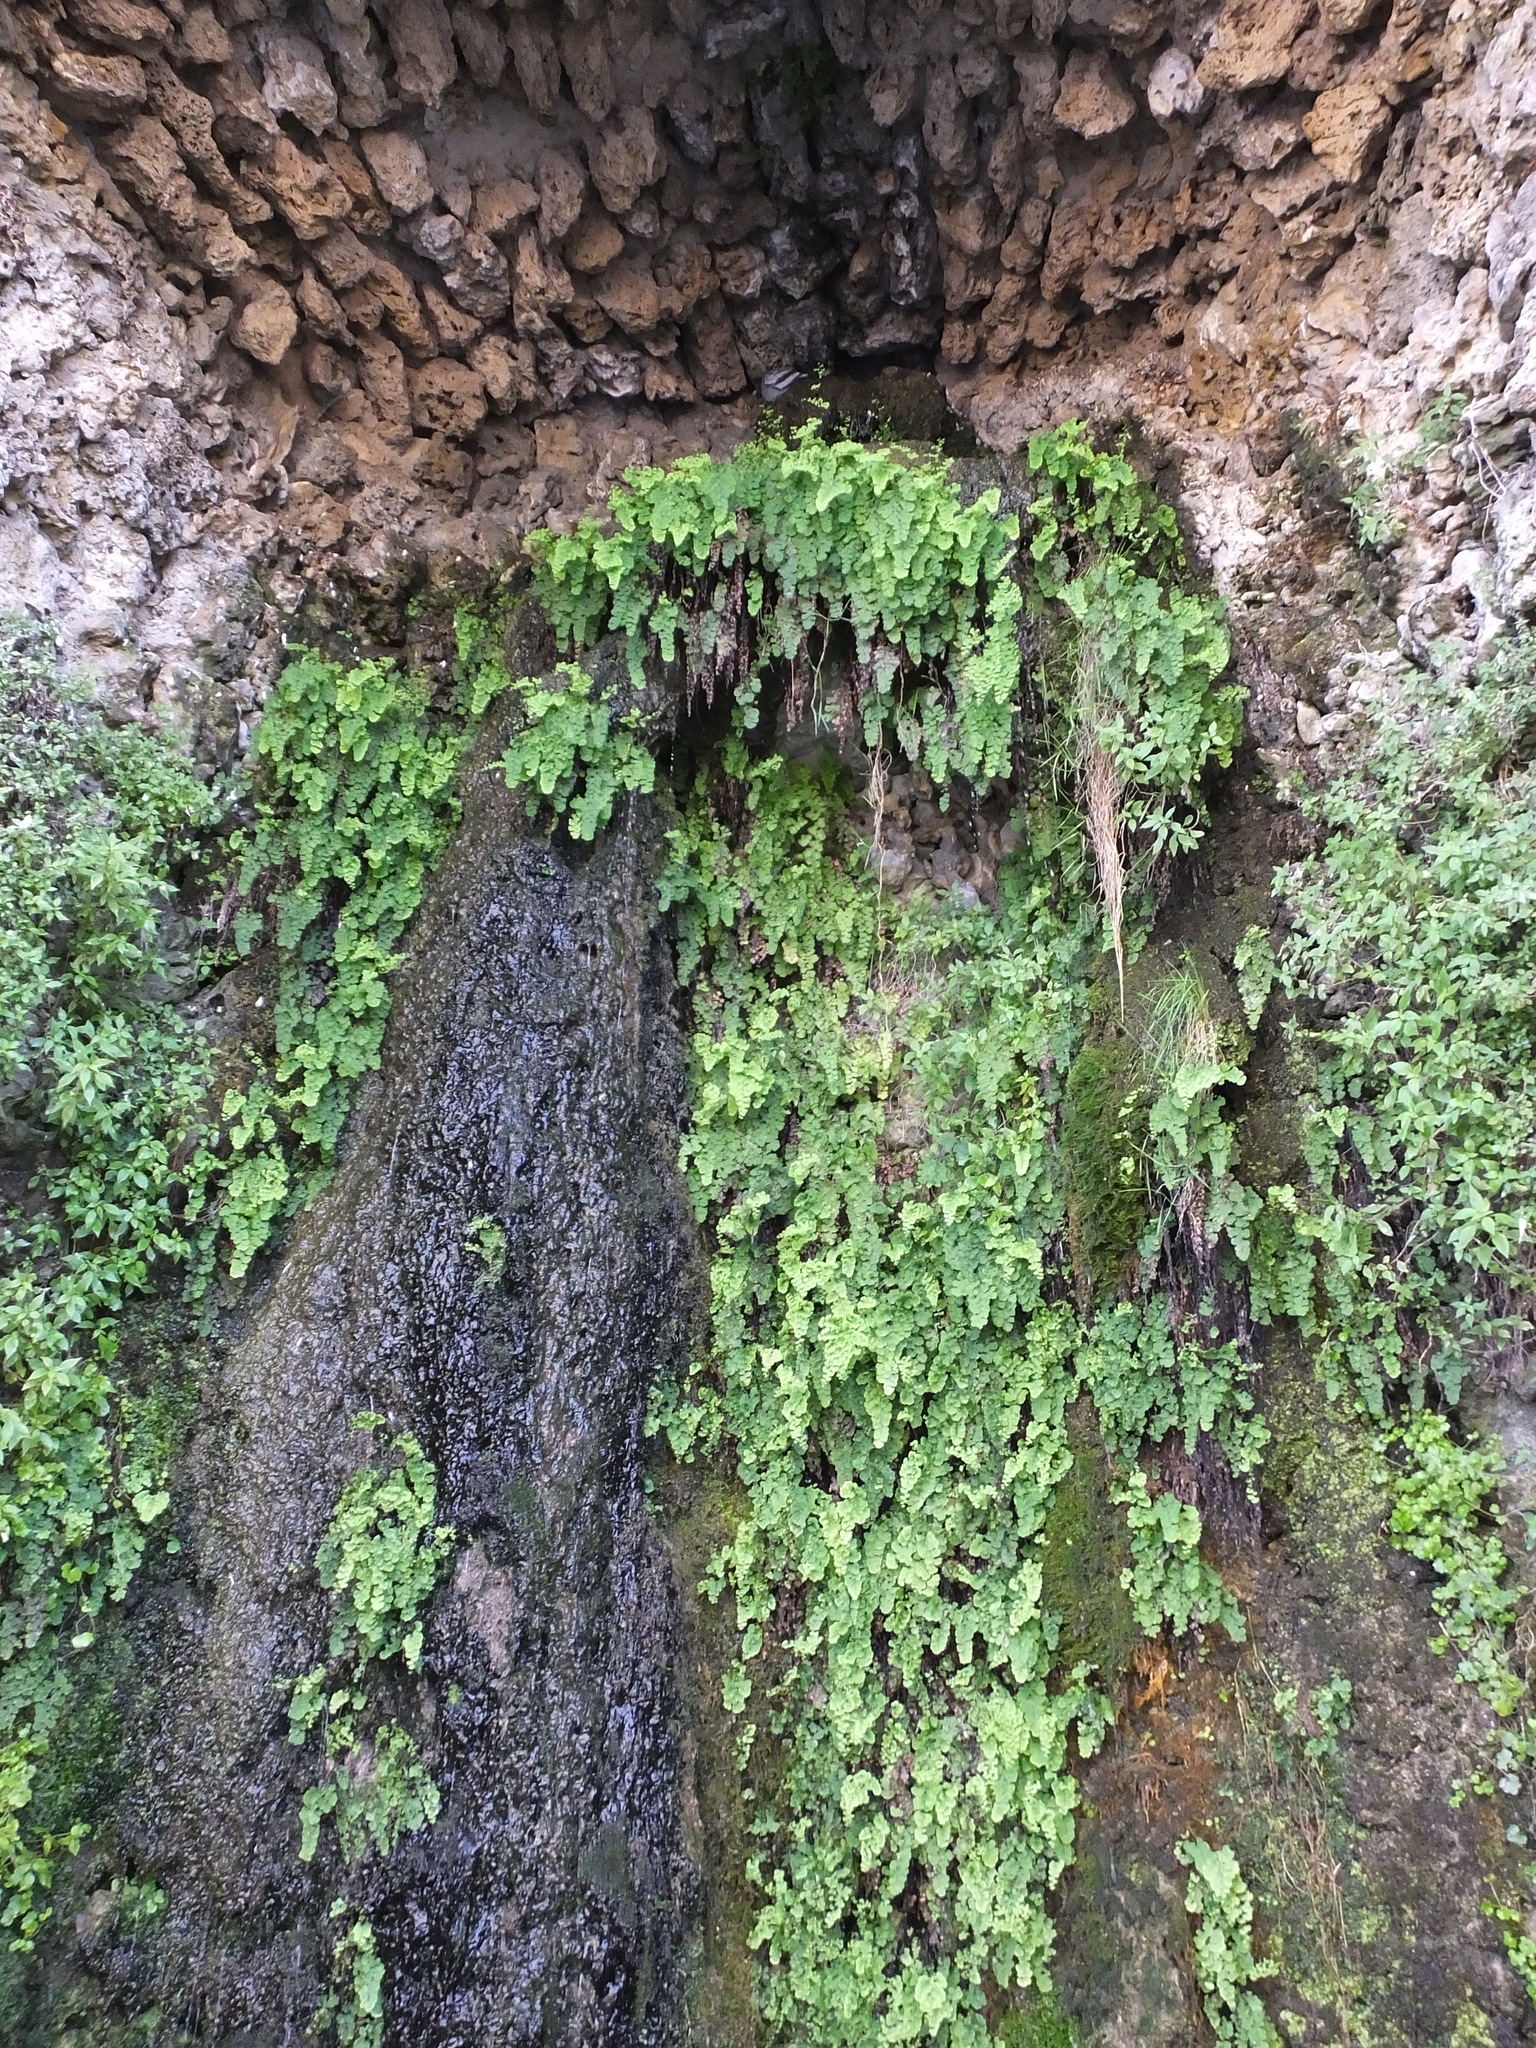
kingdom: Plantae
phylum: Tracheophyta
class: Polypodiopsida
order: Polypodiales
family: Pteridaceae
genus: Adiantum
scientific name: Adiantum capillus-veneris
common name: Maidenhair fern
